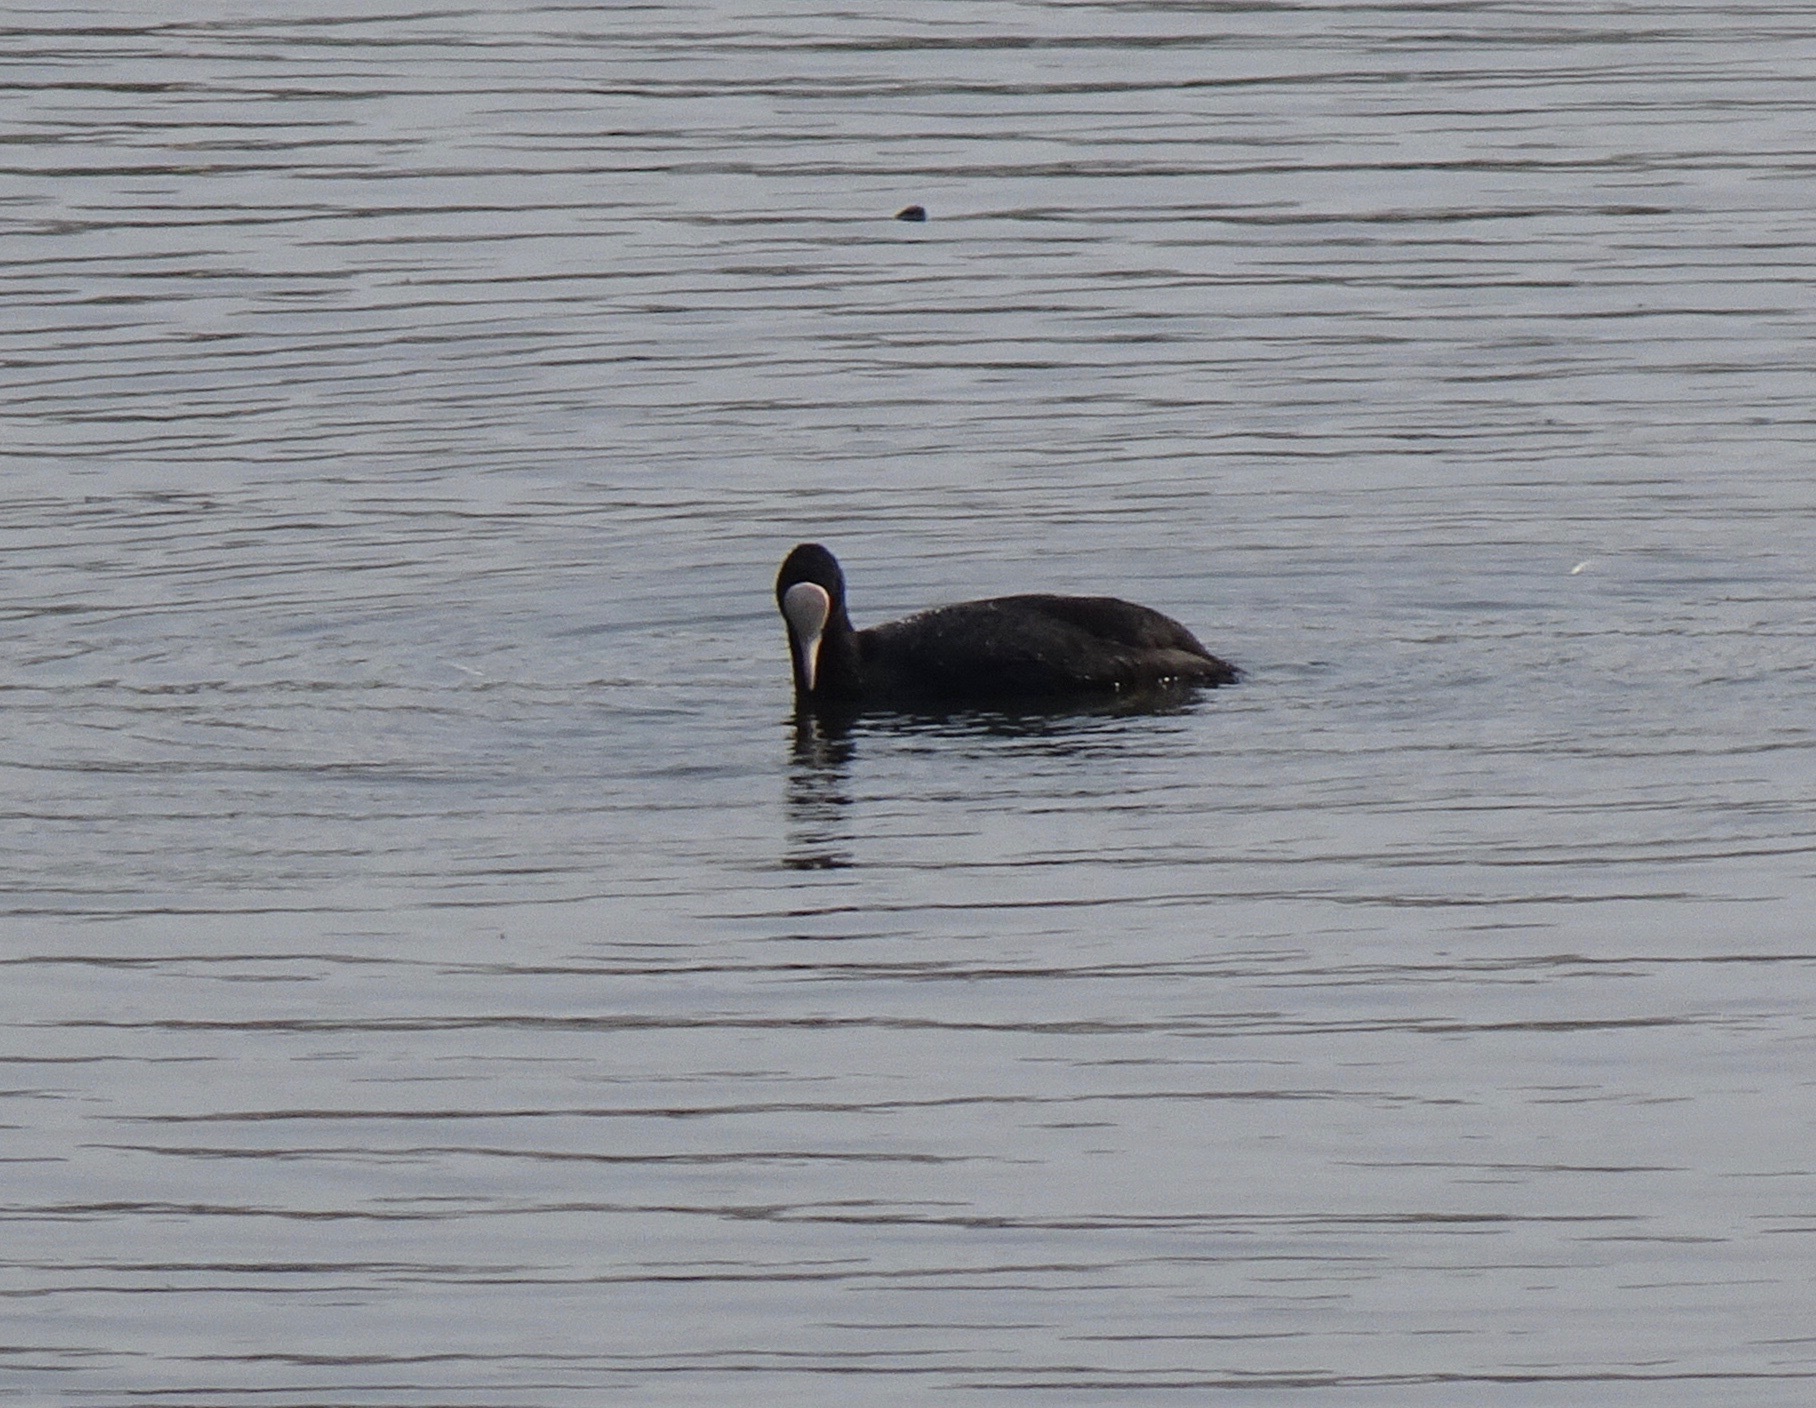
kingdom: Animalia
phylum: Chordata
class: Aves
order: Gruiformes
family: Rallidae
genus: Fulica
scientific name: Fulica atra
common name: Eurasian coot
